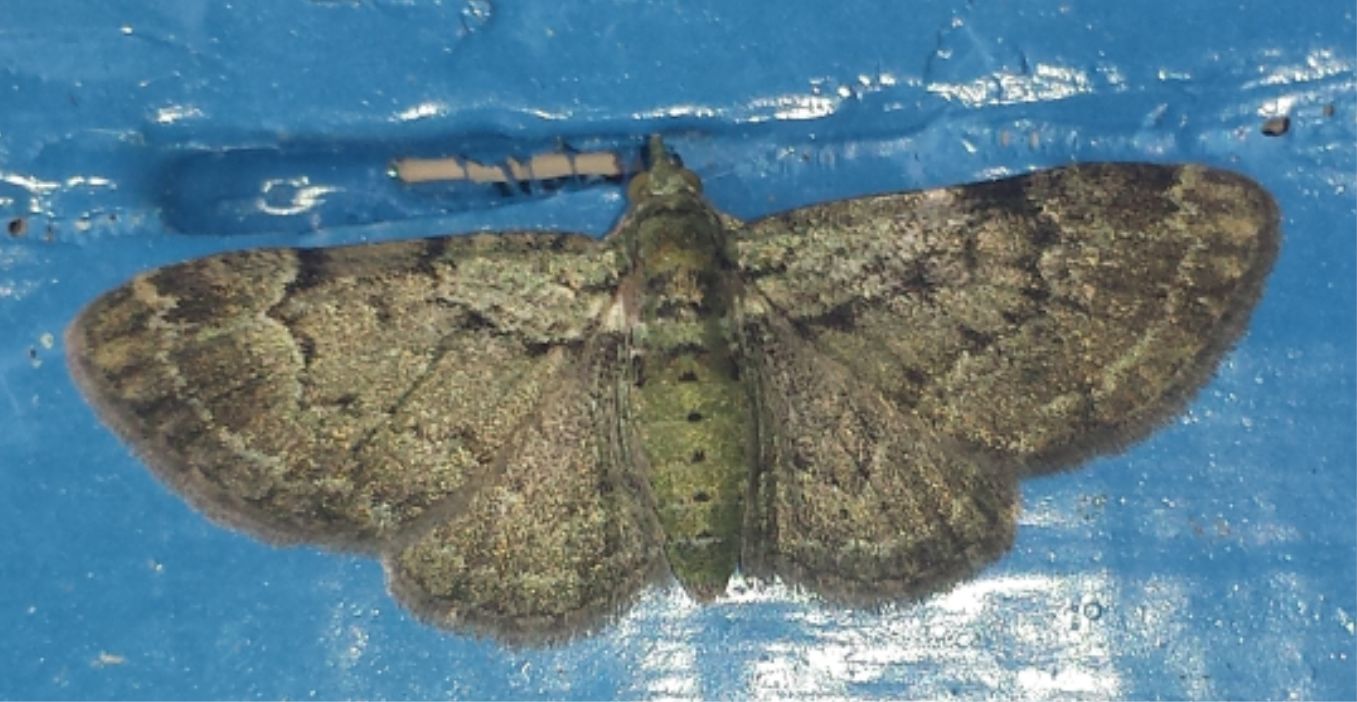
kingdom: Animalia
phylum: Arthropoda
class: Insecta
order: Lepidoptera
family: Geometridae
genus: Pasiphila
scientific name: Pasiphila rectangulata
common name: Green pug
